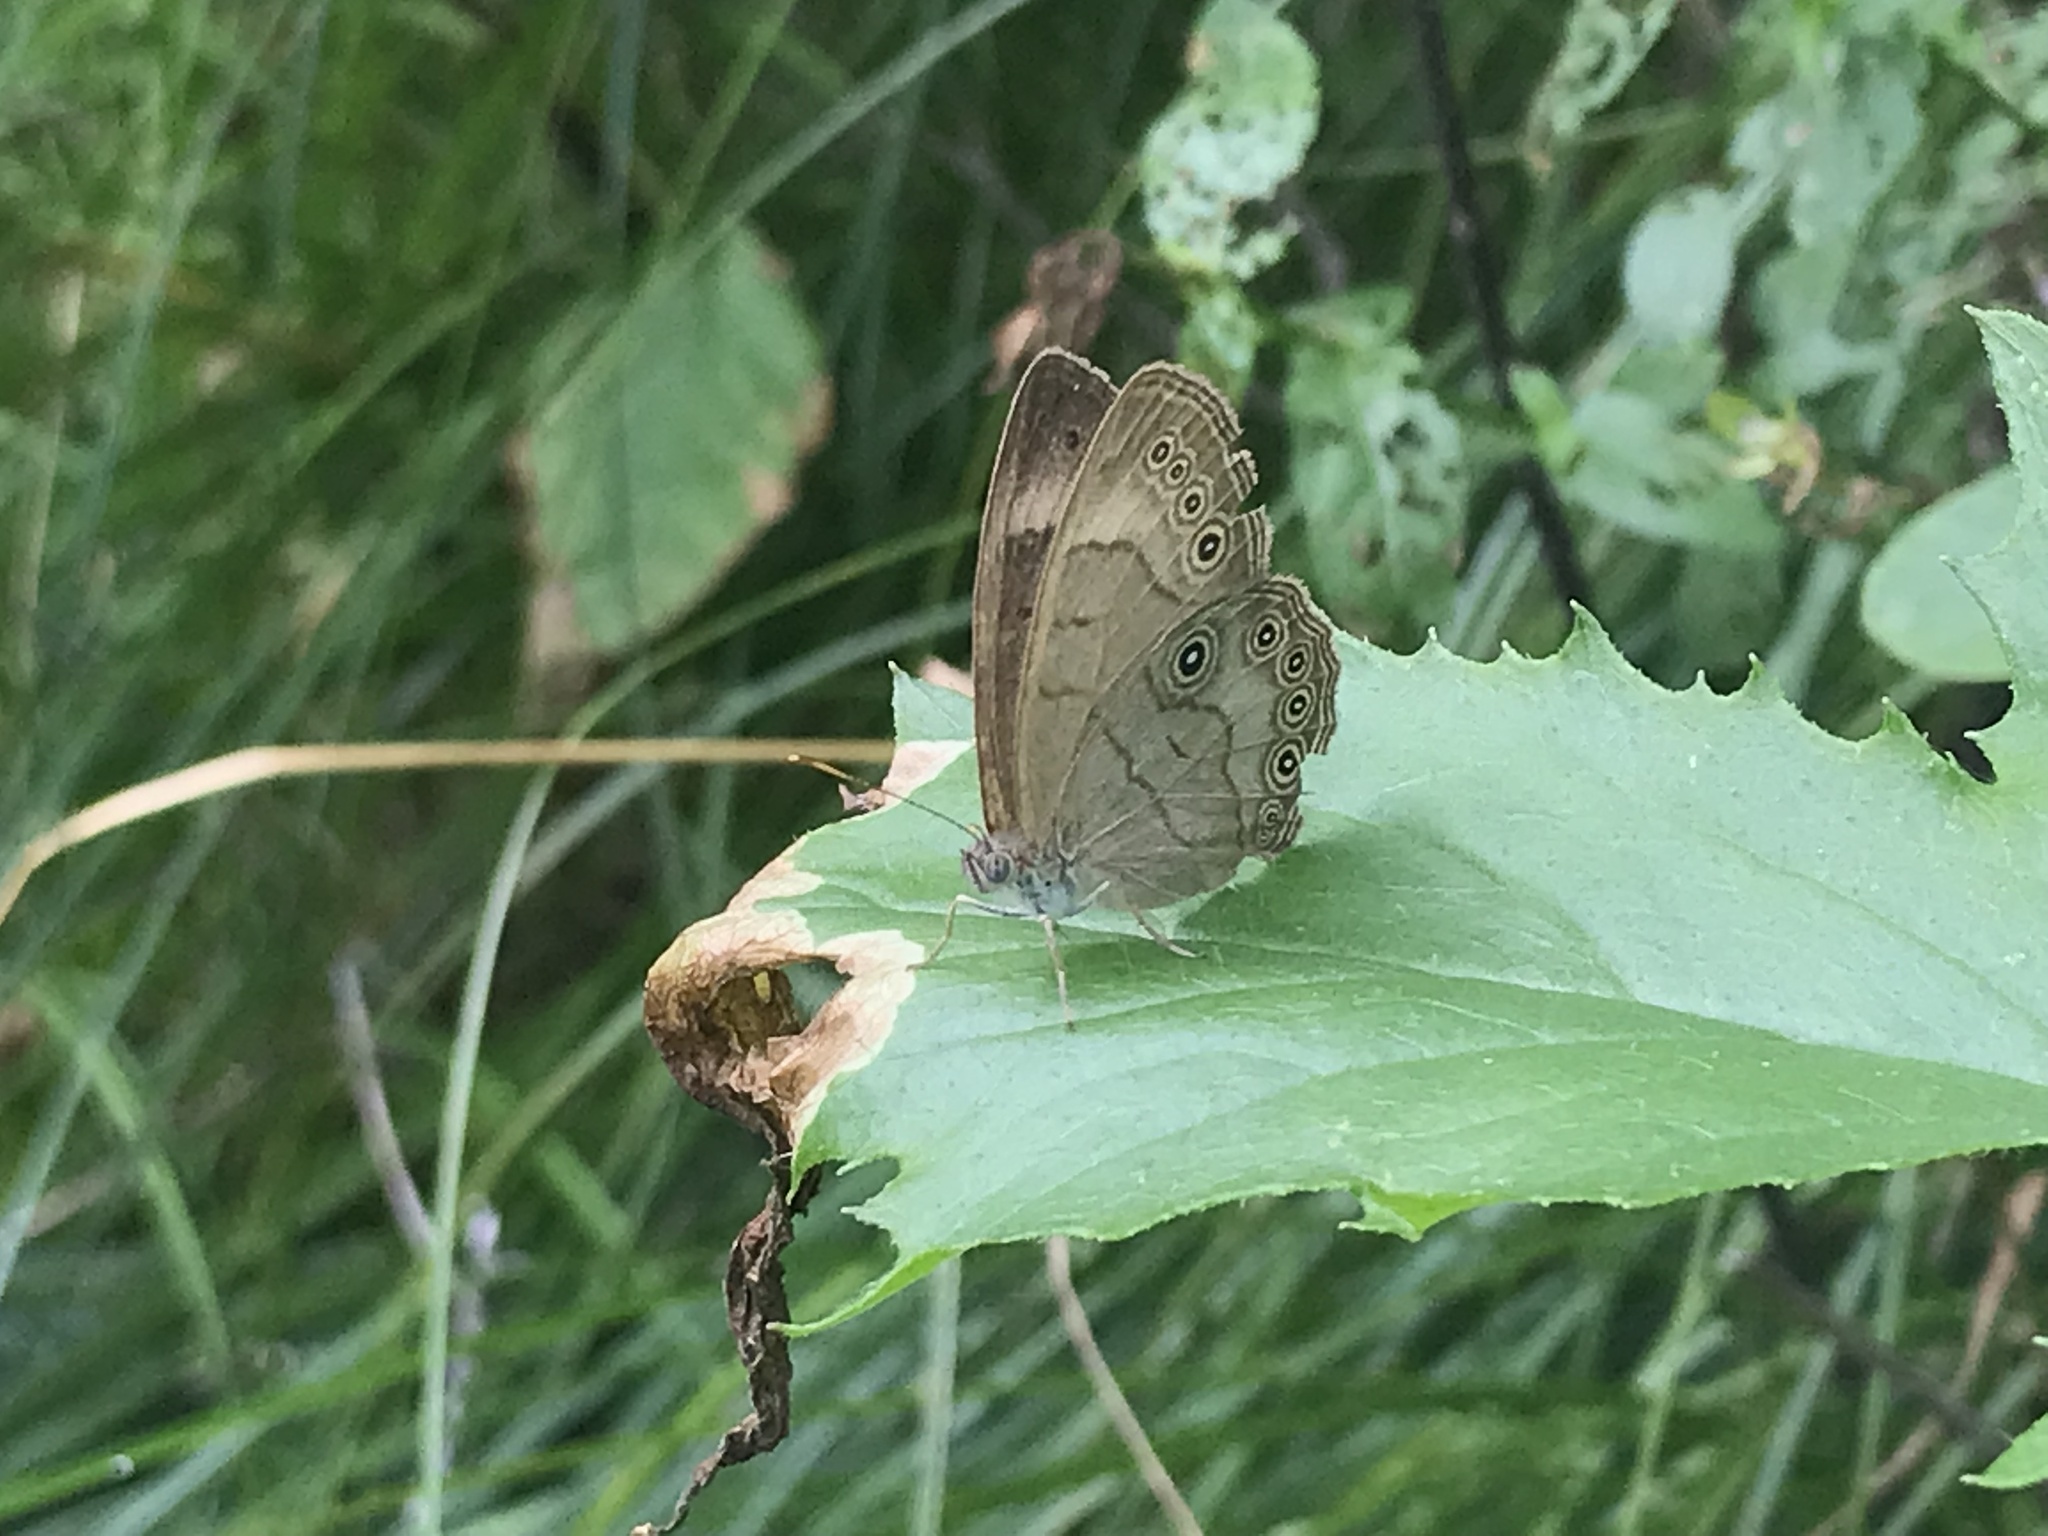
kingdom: Animalia
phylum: Arthropoda
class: Insecta
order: Lepidoptera
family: Nymphalidae
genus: Lethe
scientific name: Lethe eurydice
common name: Eyed brown
